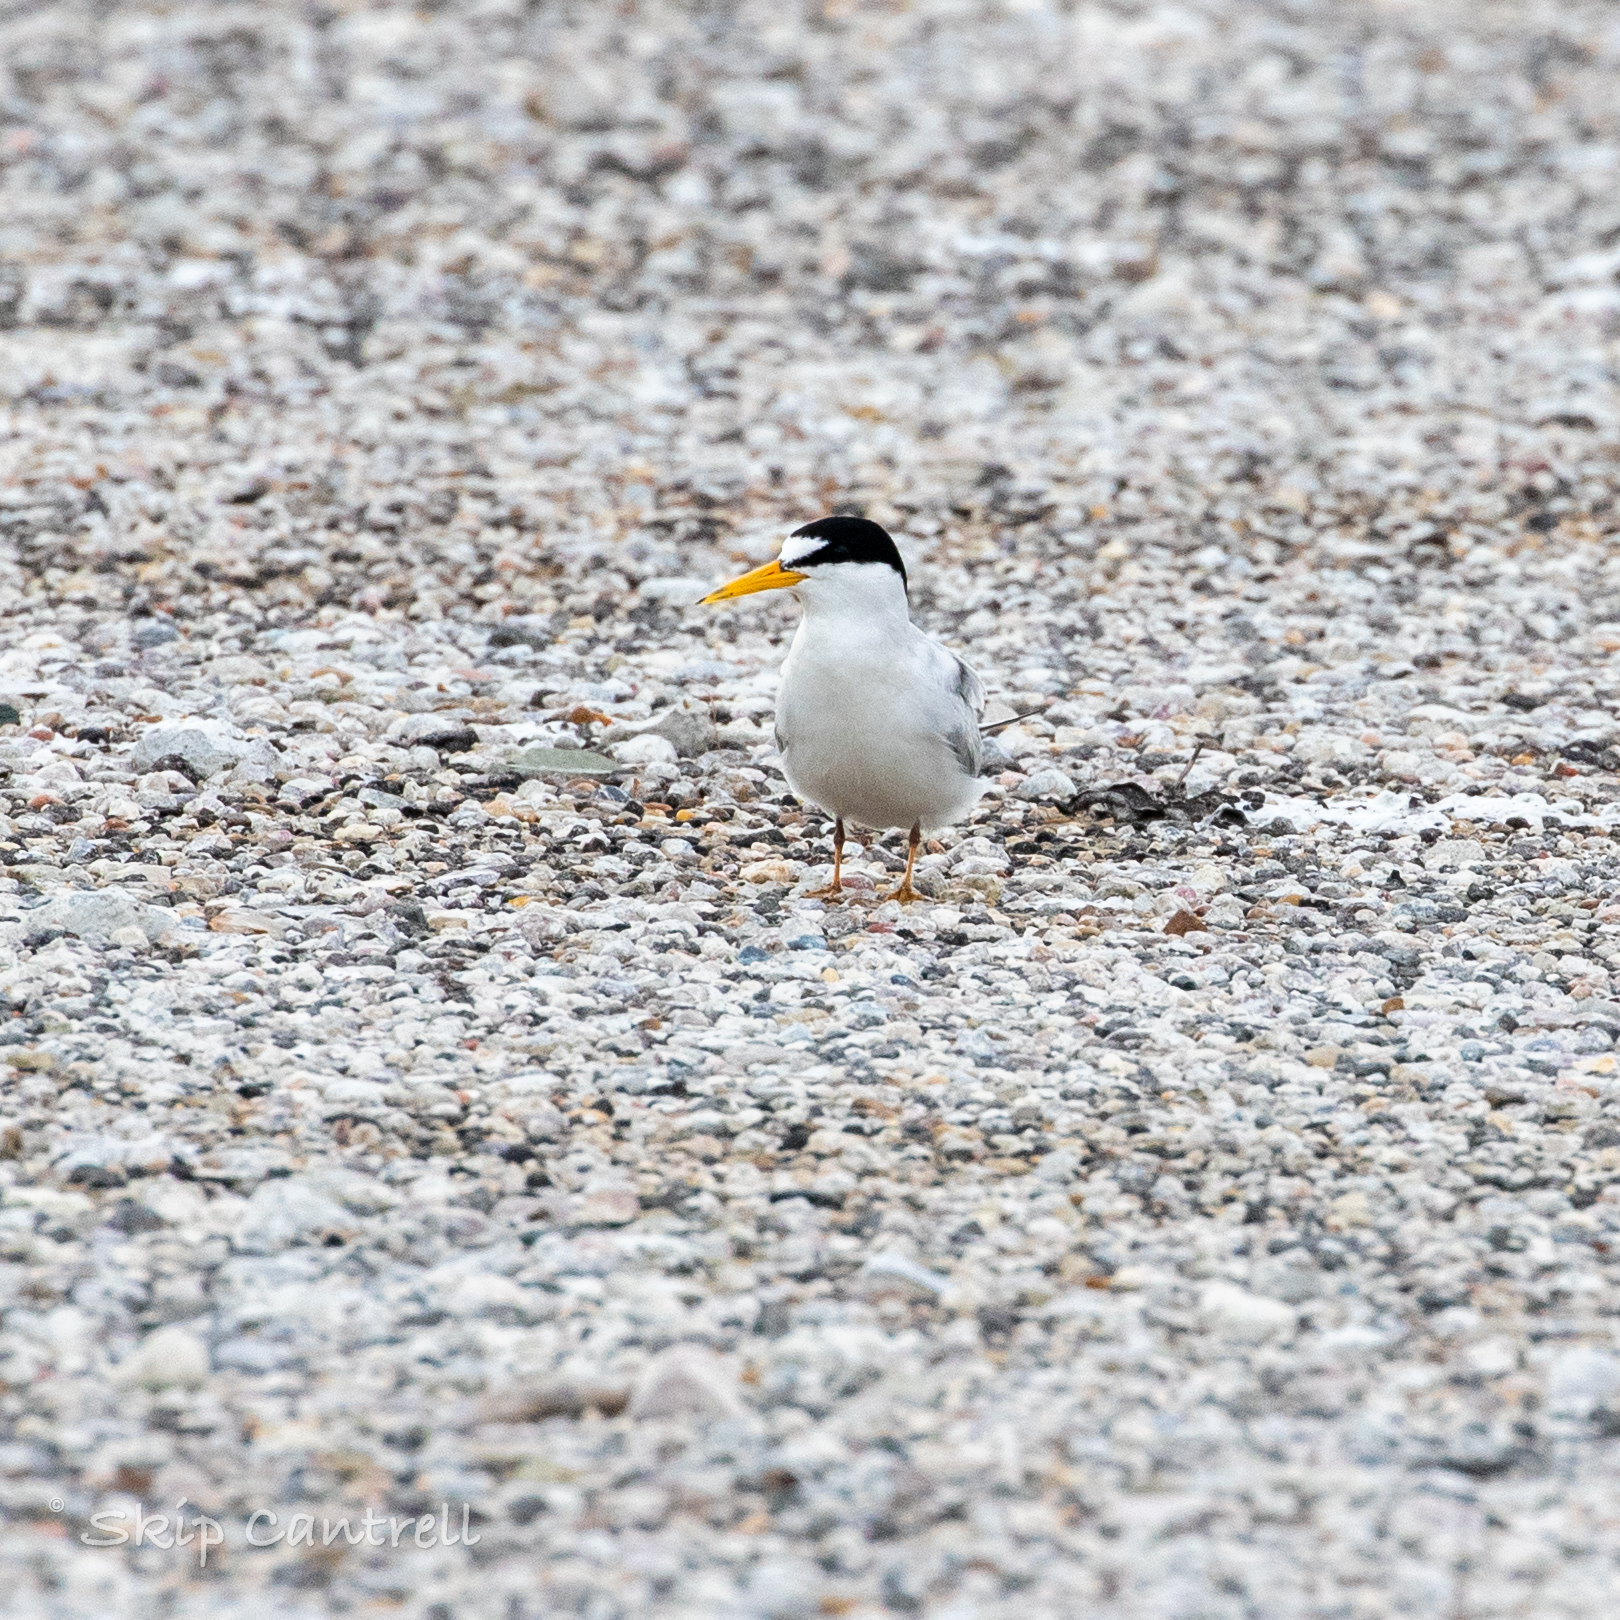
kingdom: Animalia
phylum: Chordata
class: Aves
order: Charadriiformes
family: Laridae
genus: Sternula
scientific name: Sternula antillarum
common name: Least tern
